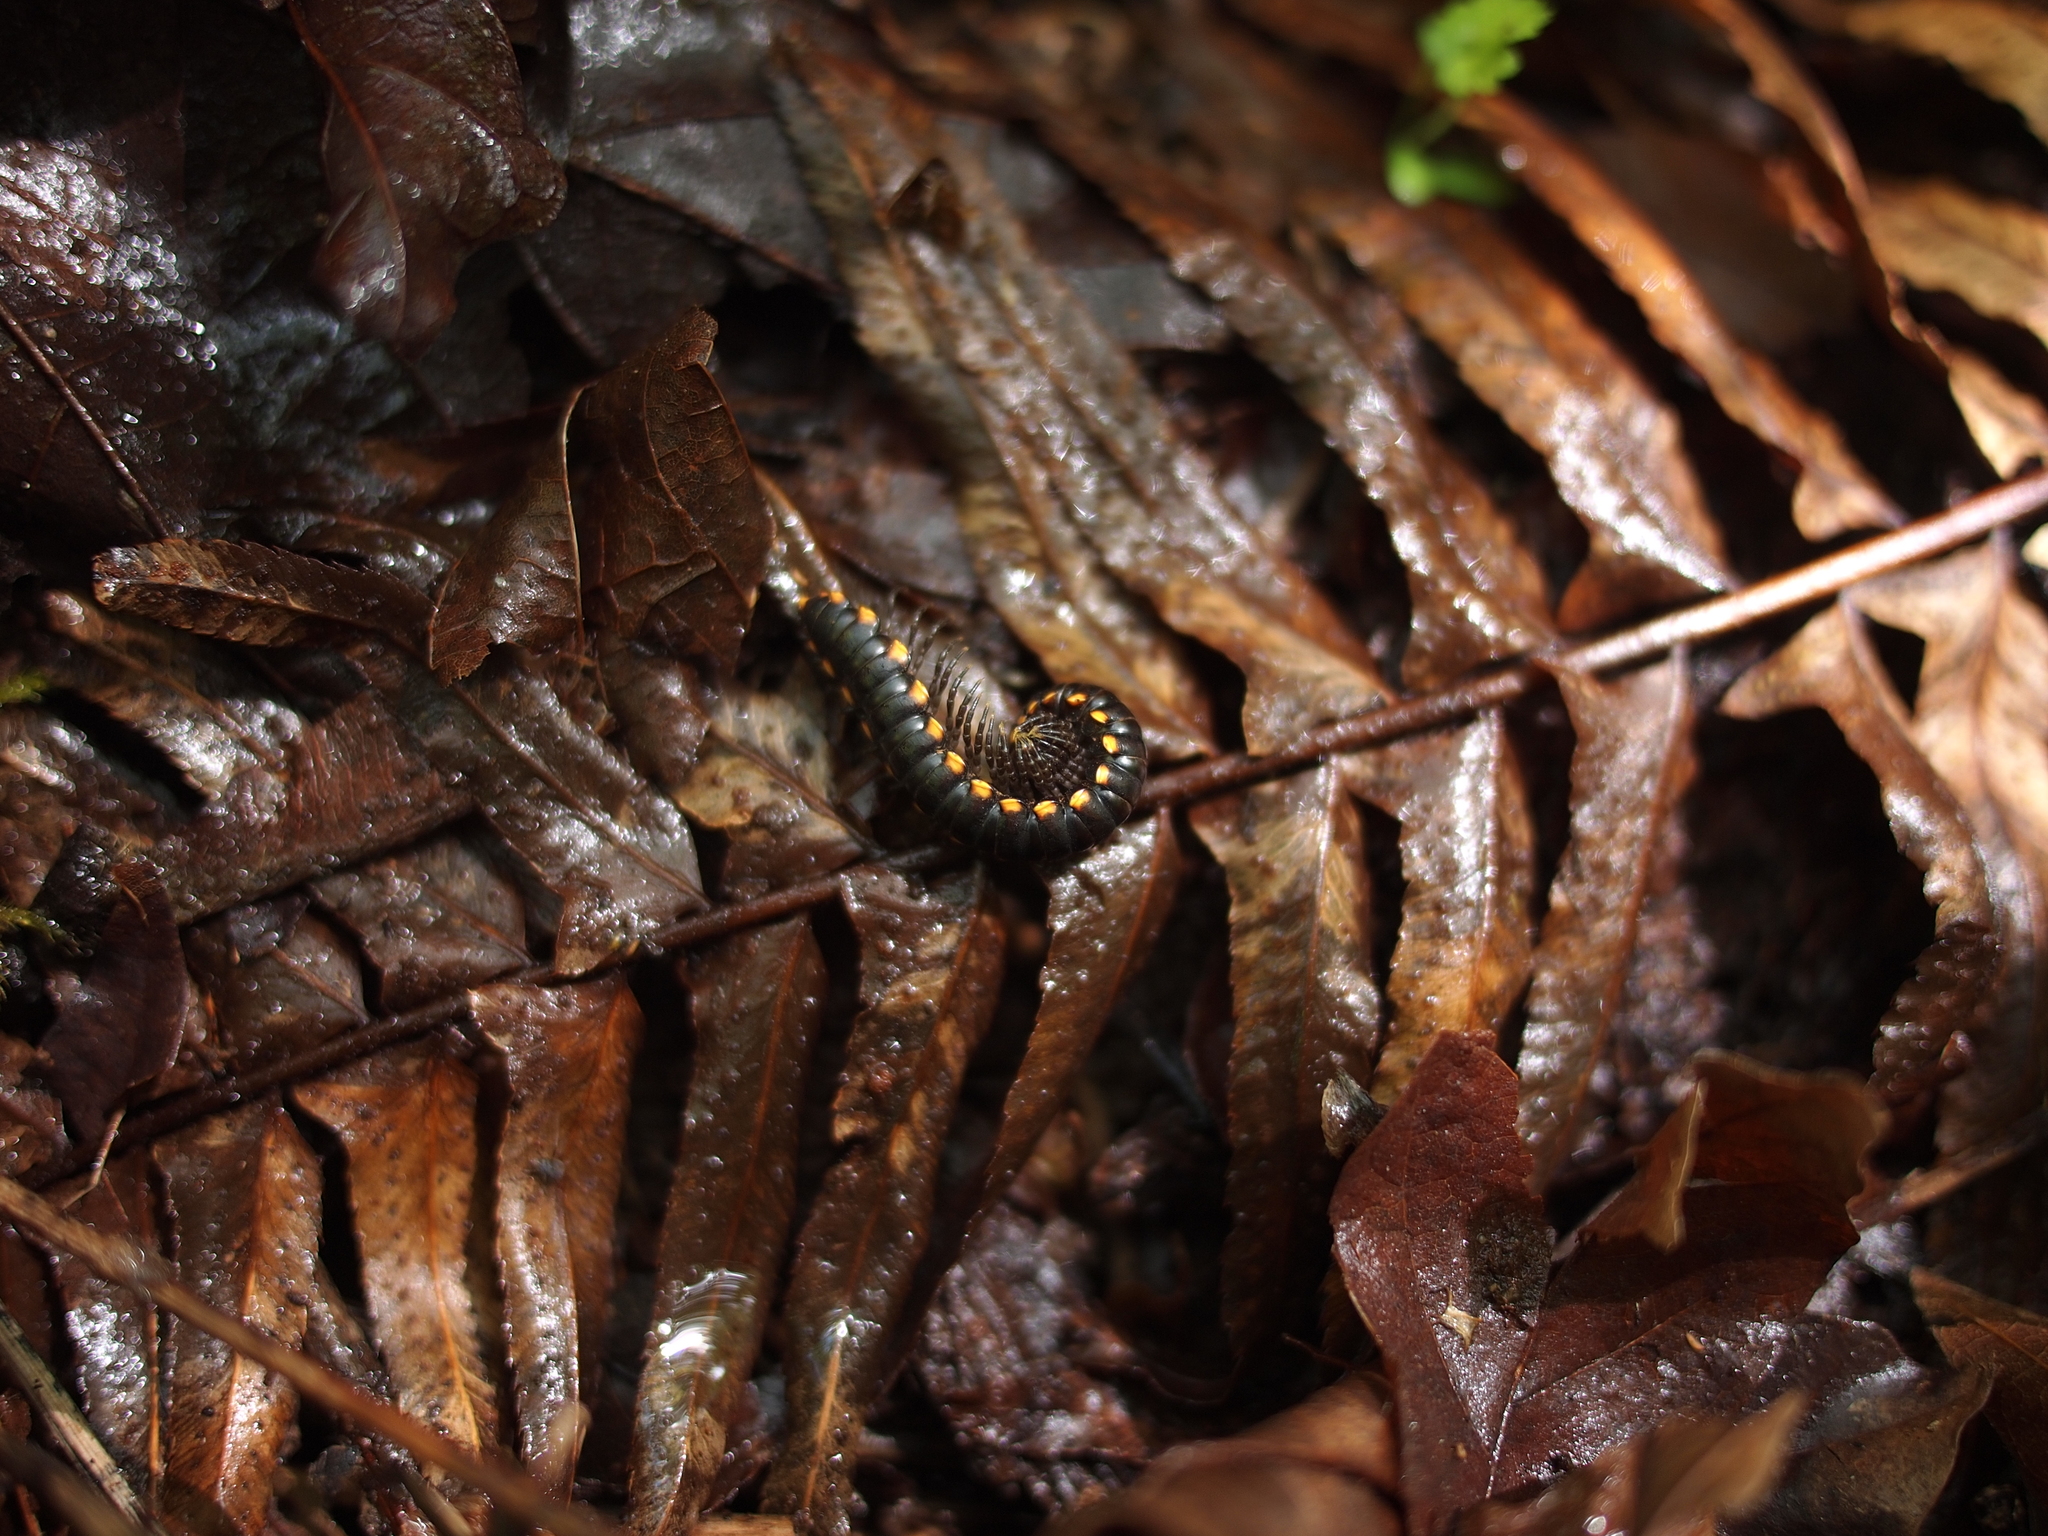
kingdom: Animalia
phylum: Arthropoda
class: Diplopoda
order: Polydesmida
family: Xystodesmidae
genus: Harpaphe
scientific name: Harpaphe haydeniana
